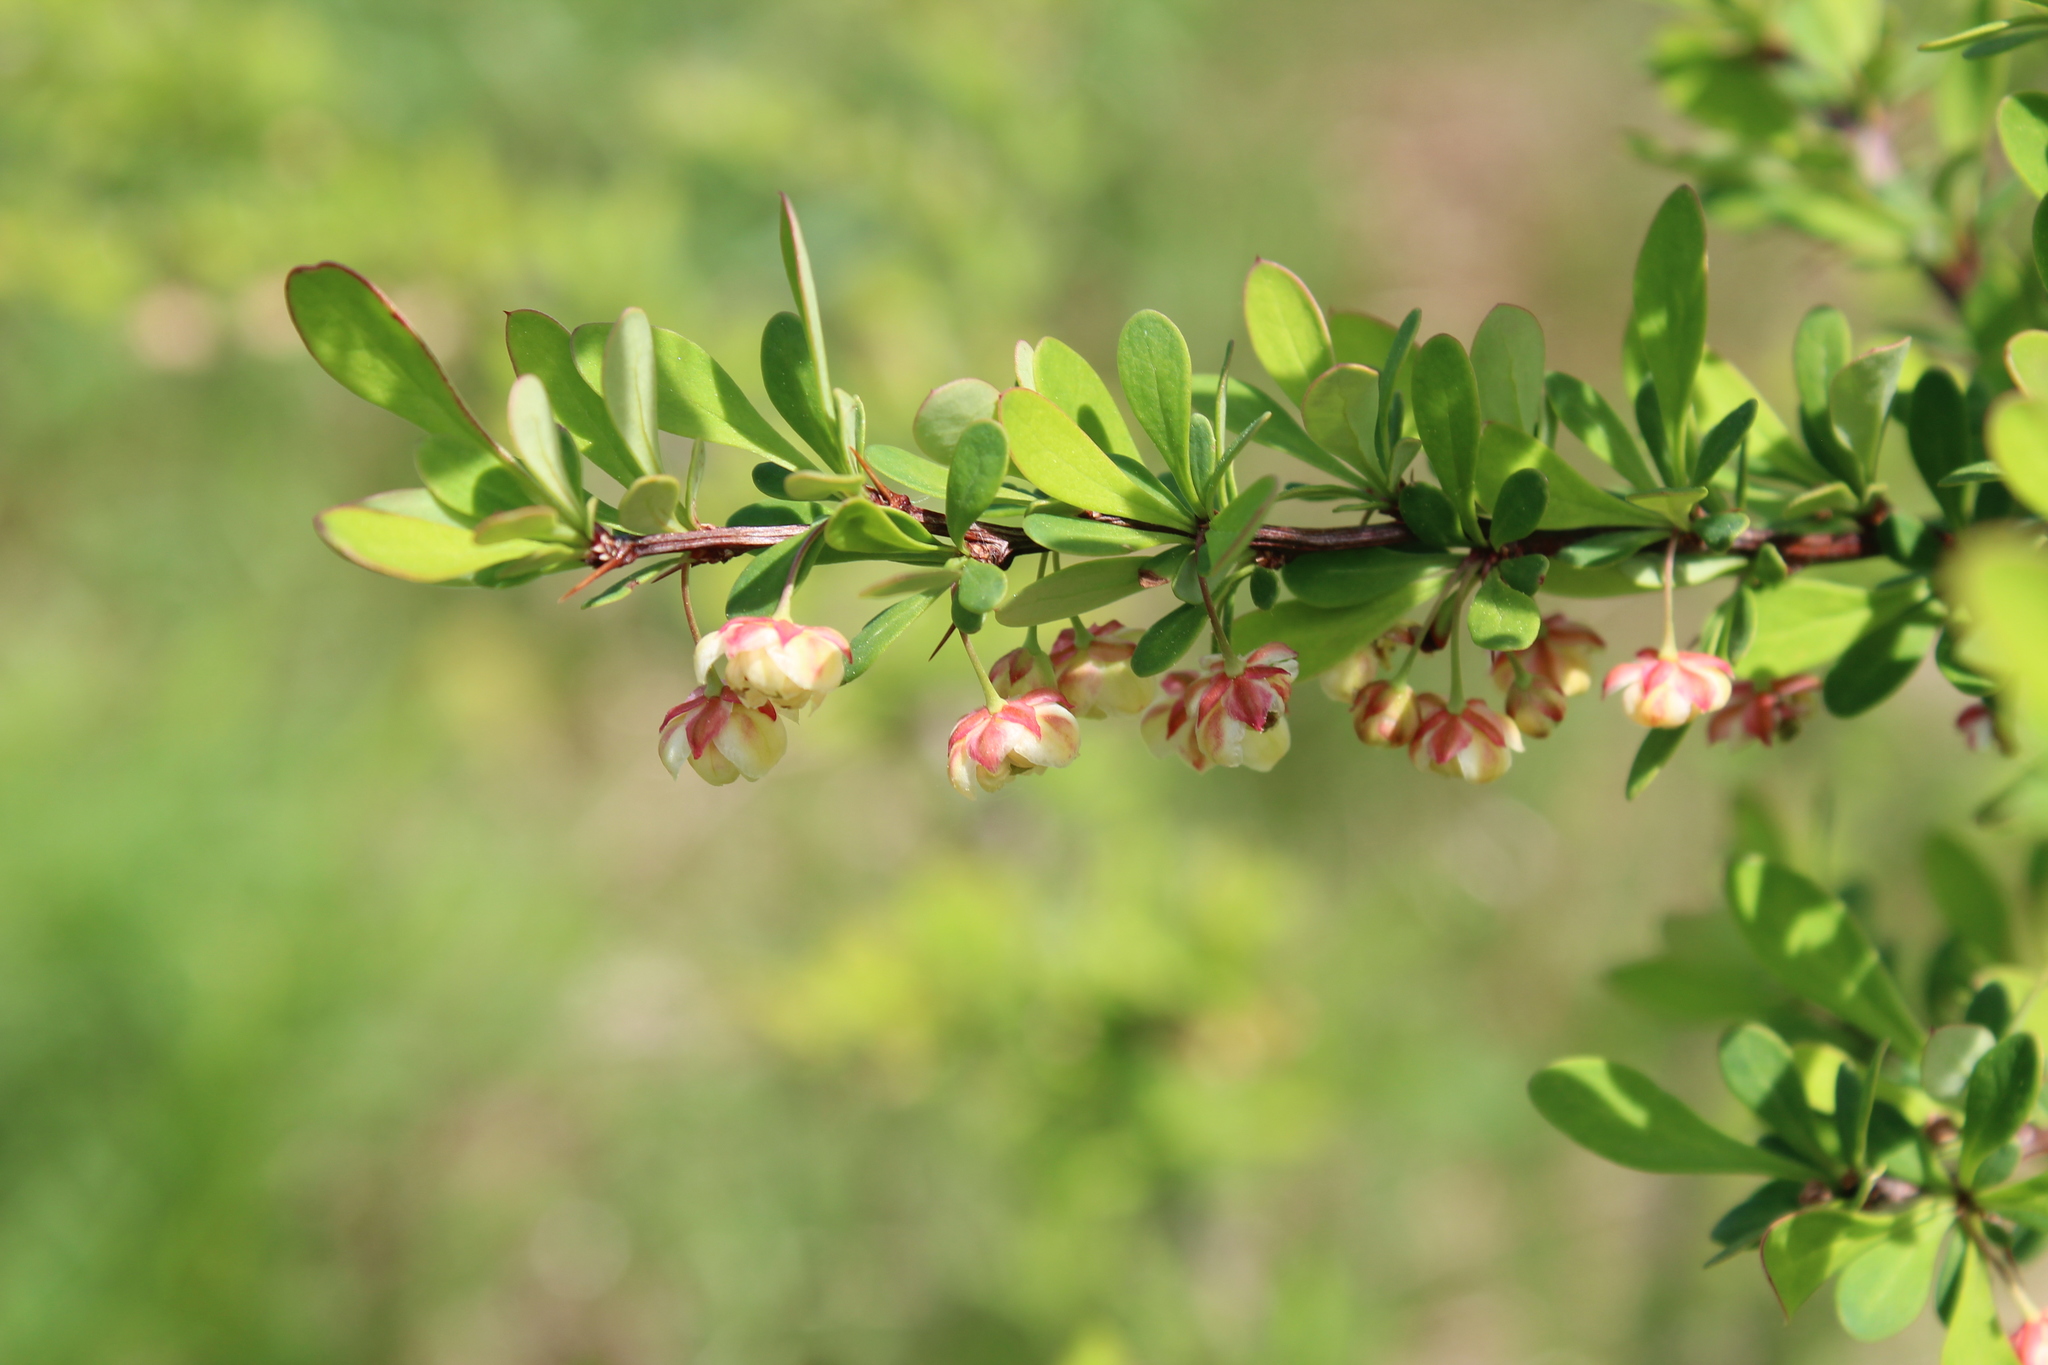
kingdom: Plantae
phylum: Tracheophyta
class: Magnoliopsida
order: Ranunculales
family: Berberidaceae
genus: Berberis
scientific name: Berberis thunbergii
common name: Japanese barberry
